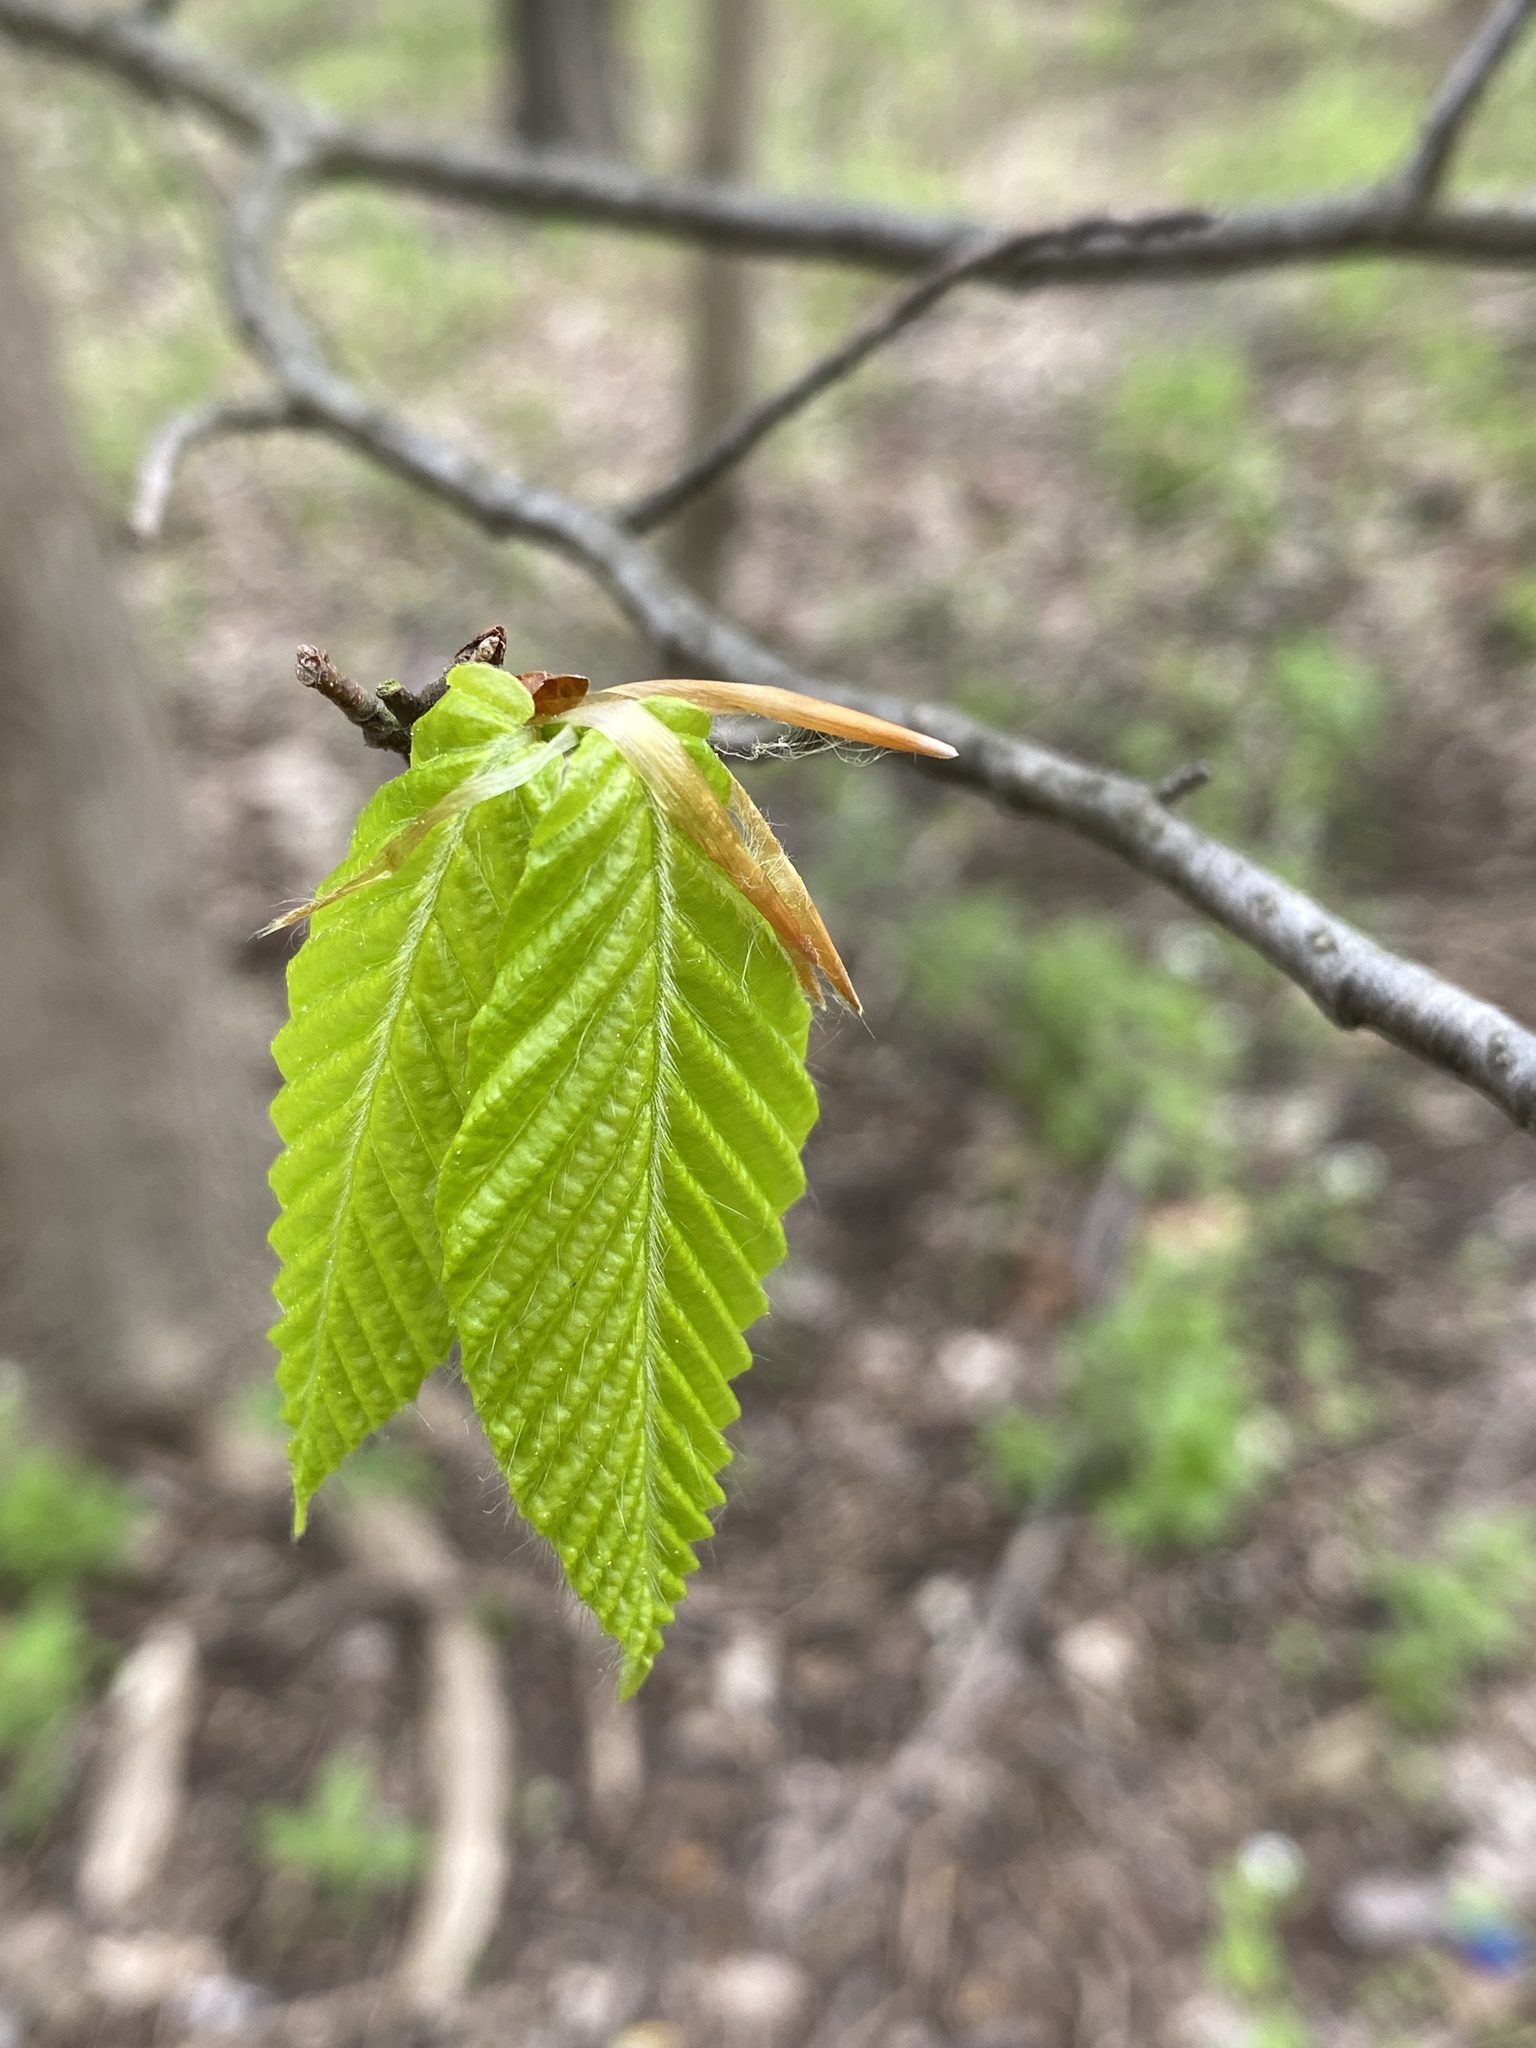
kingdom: Plantae
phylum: Tracheophyta
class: Magnoliopsida
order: Fagales
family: Fagaceae
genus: Fagus
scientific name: Fagus grandifolia
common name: American beech
